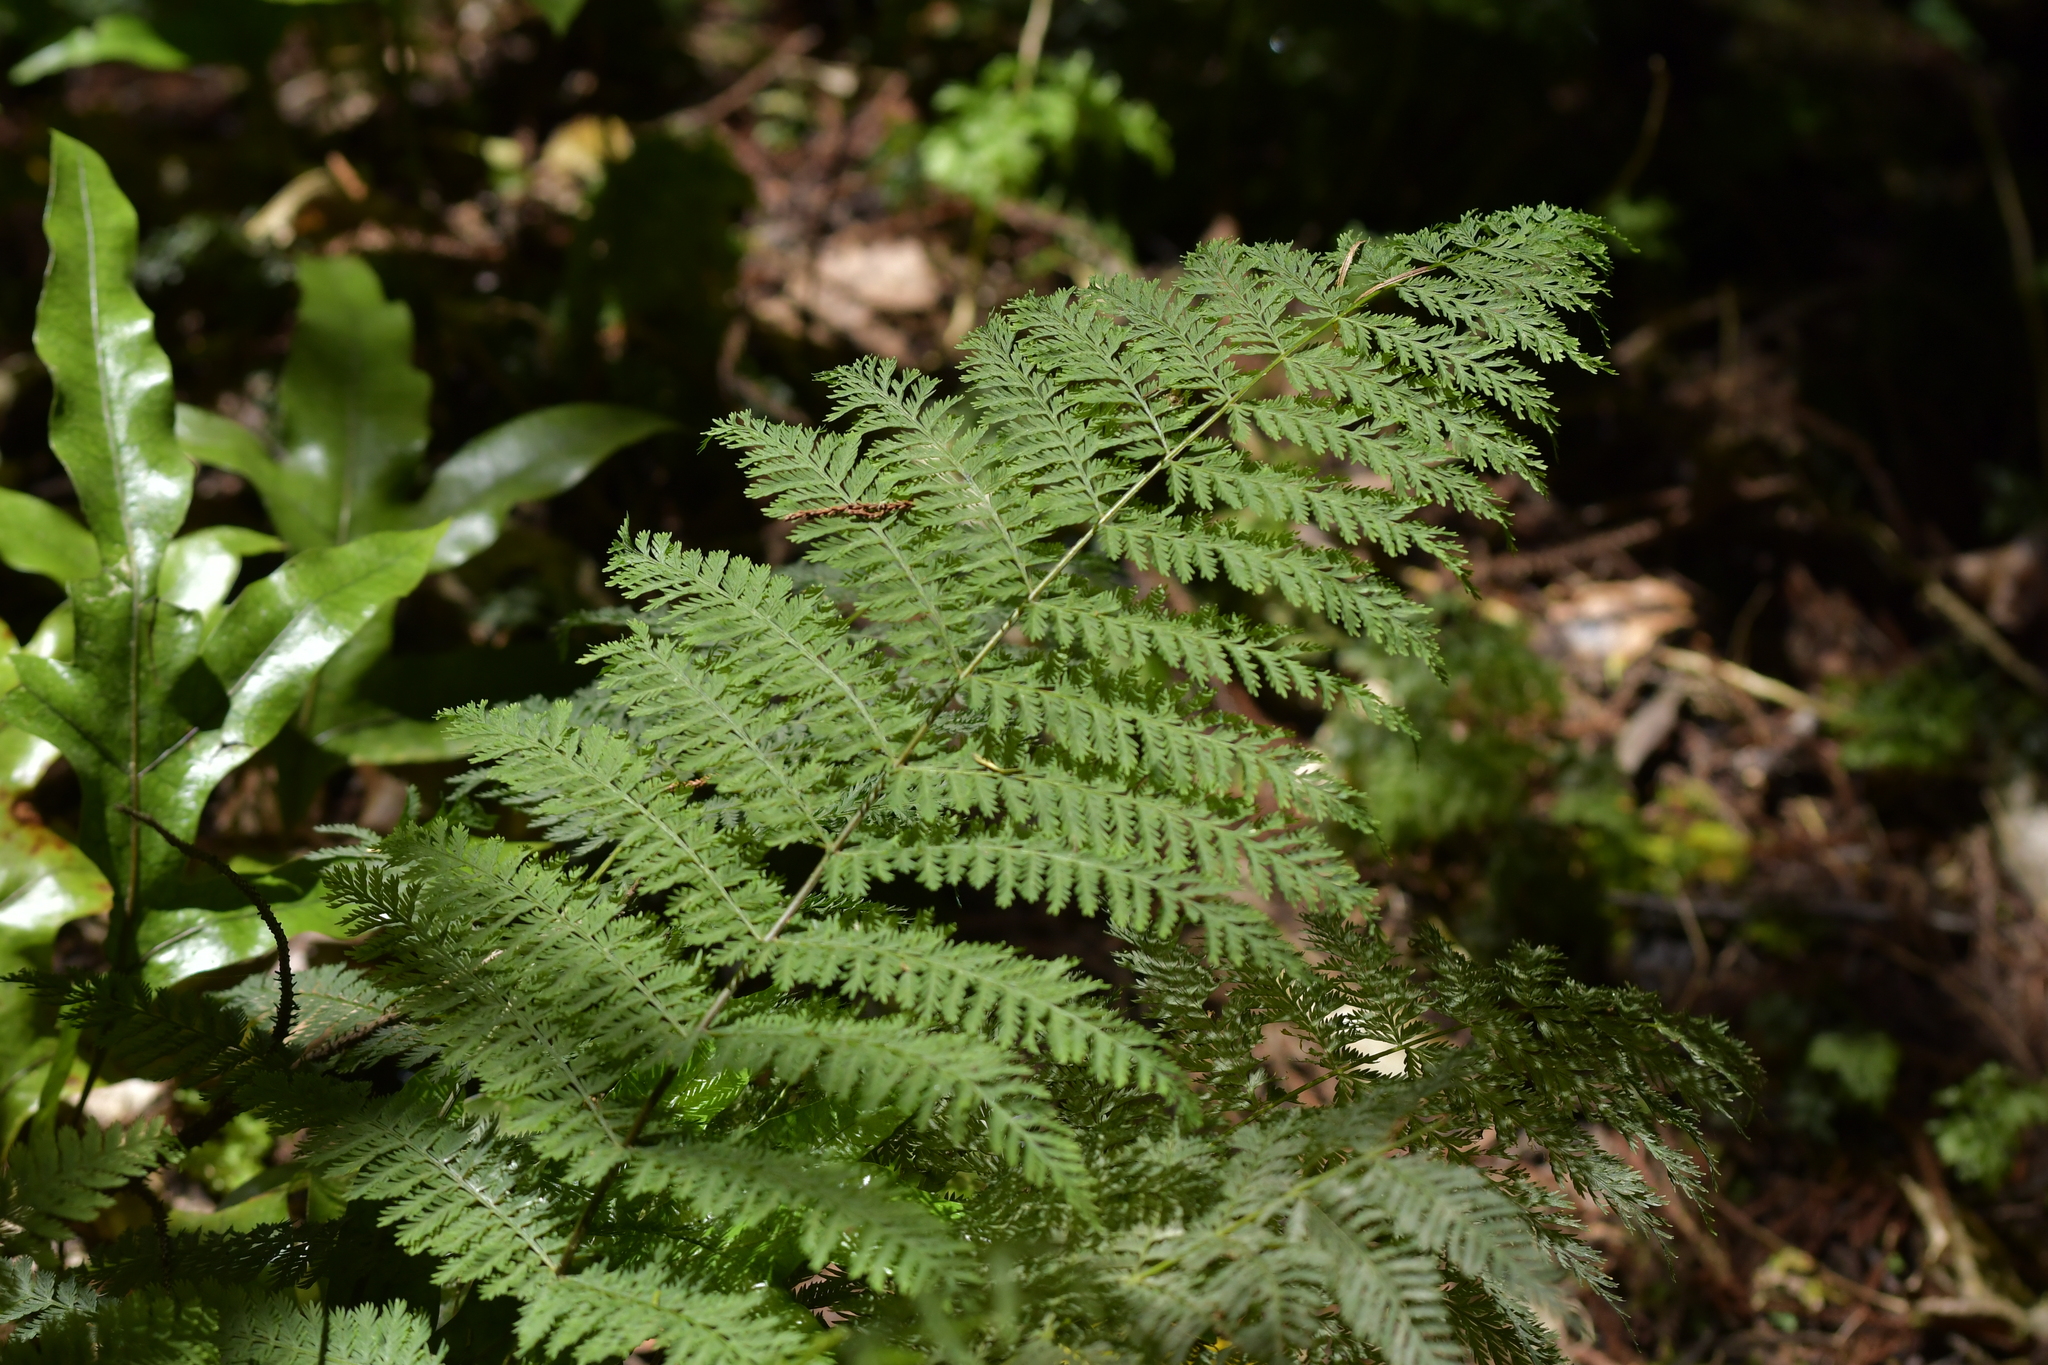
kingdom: Plantae
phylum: Tracheophyta
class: Polypodiopsida
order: Osmundales
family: Osmundaceae
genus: Leptopteris
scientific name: Leptopteris hymenophylloides
